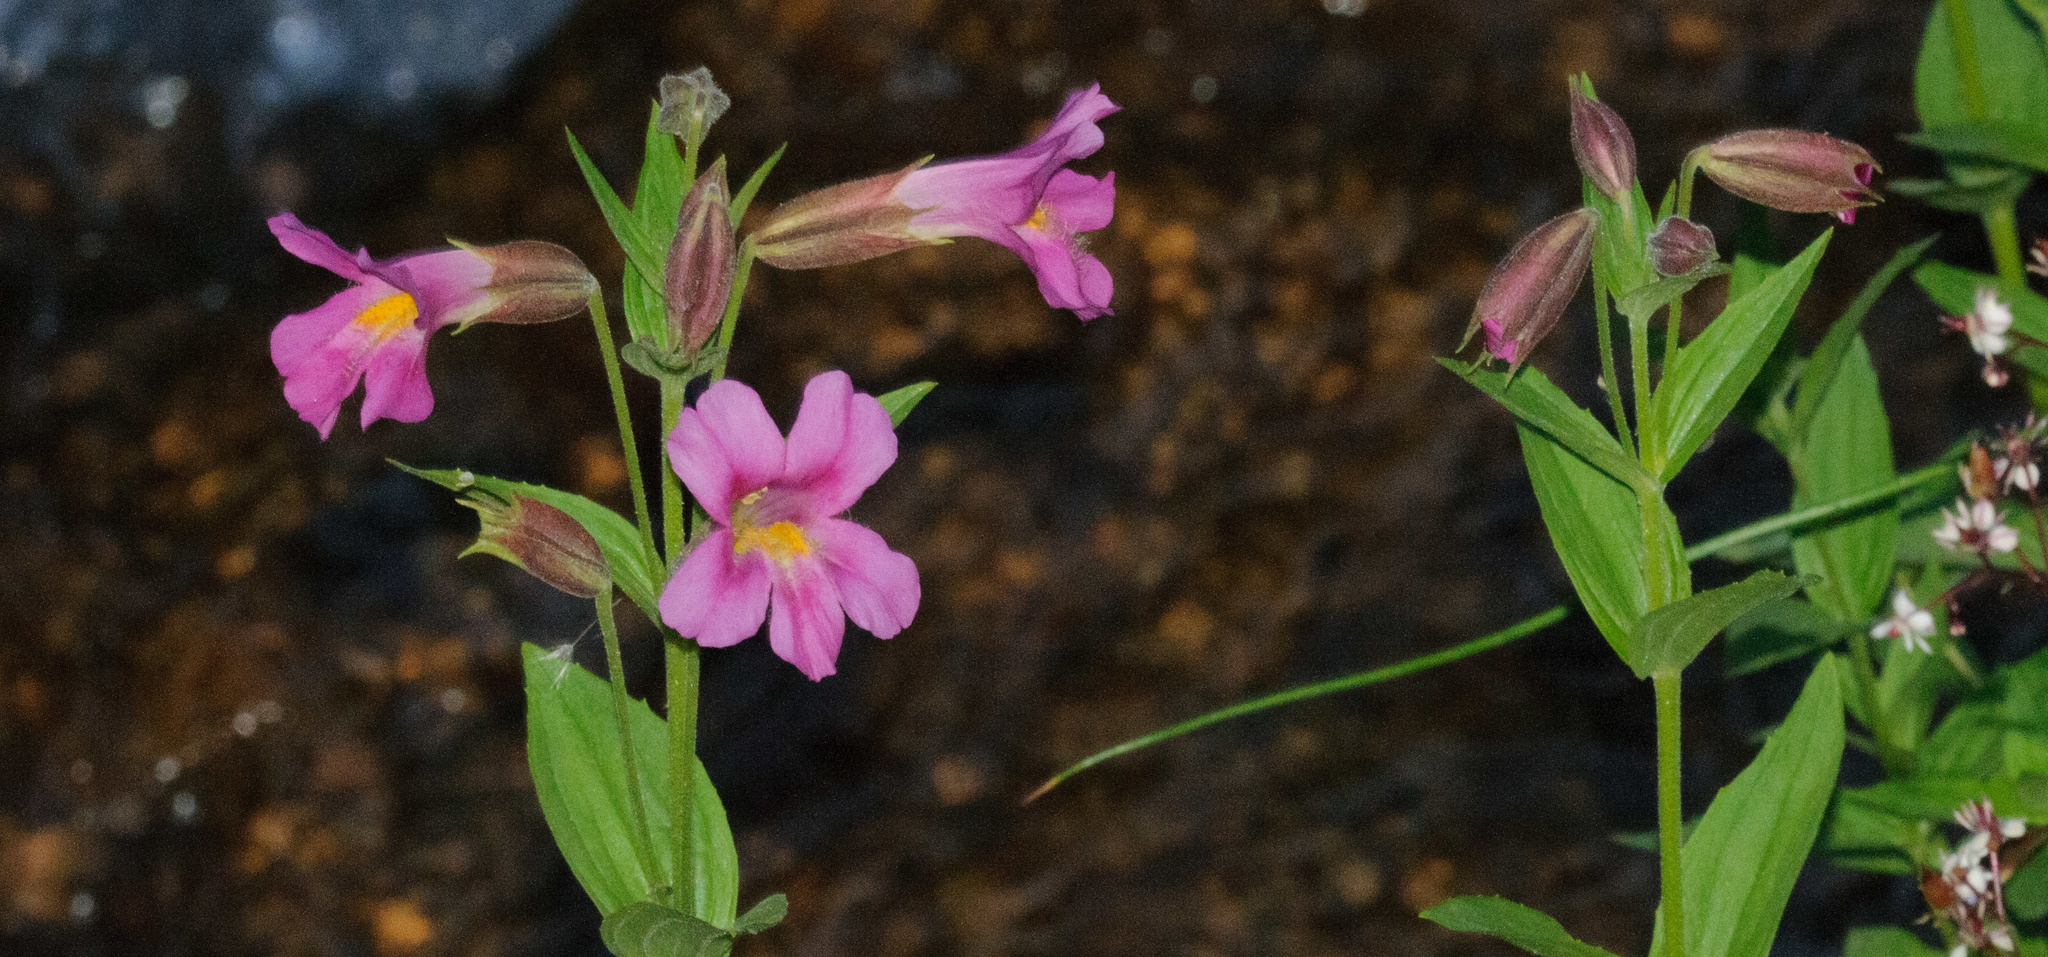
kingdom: Plantae
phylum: Tracheophyta
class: Magnoliopsida
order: Lamiales
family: Phrymaceae
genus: Erythranthe
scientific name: Erythranthe lewisii
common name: Lewis's monkey-flower
